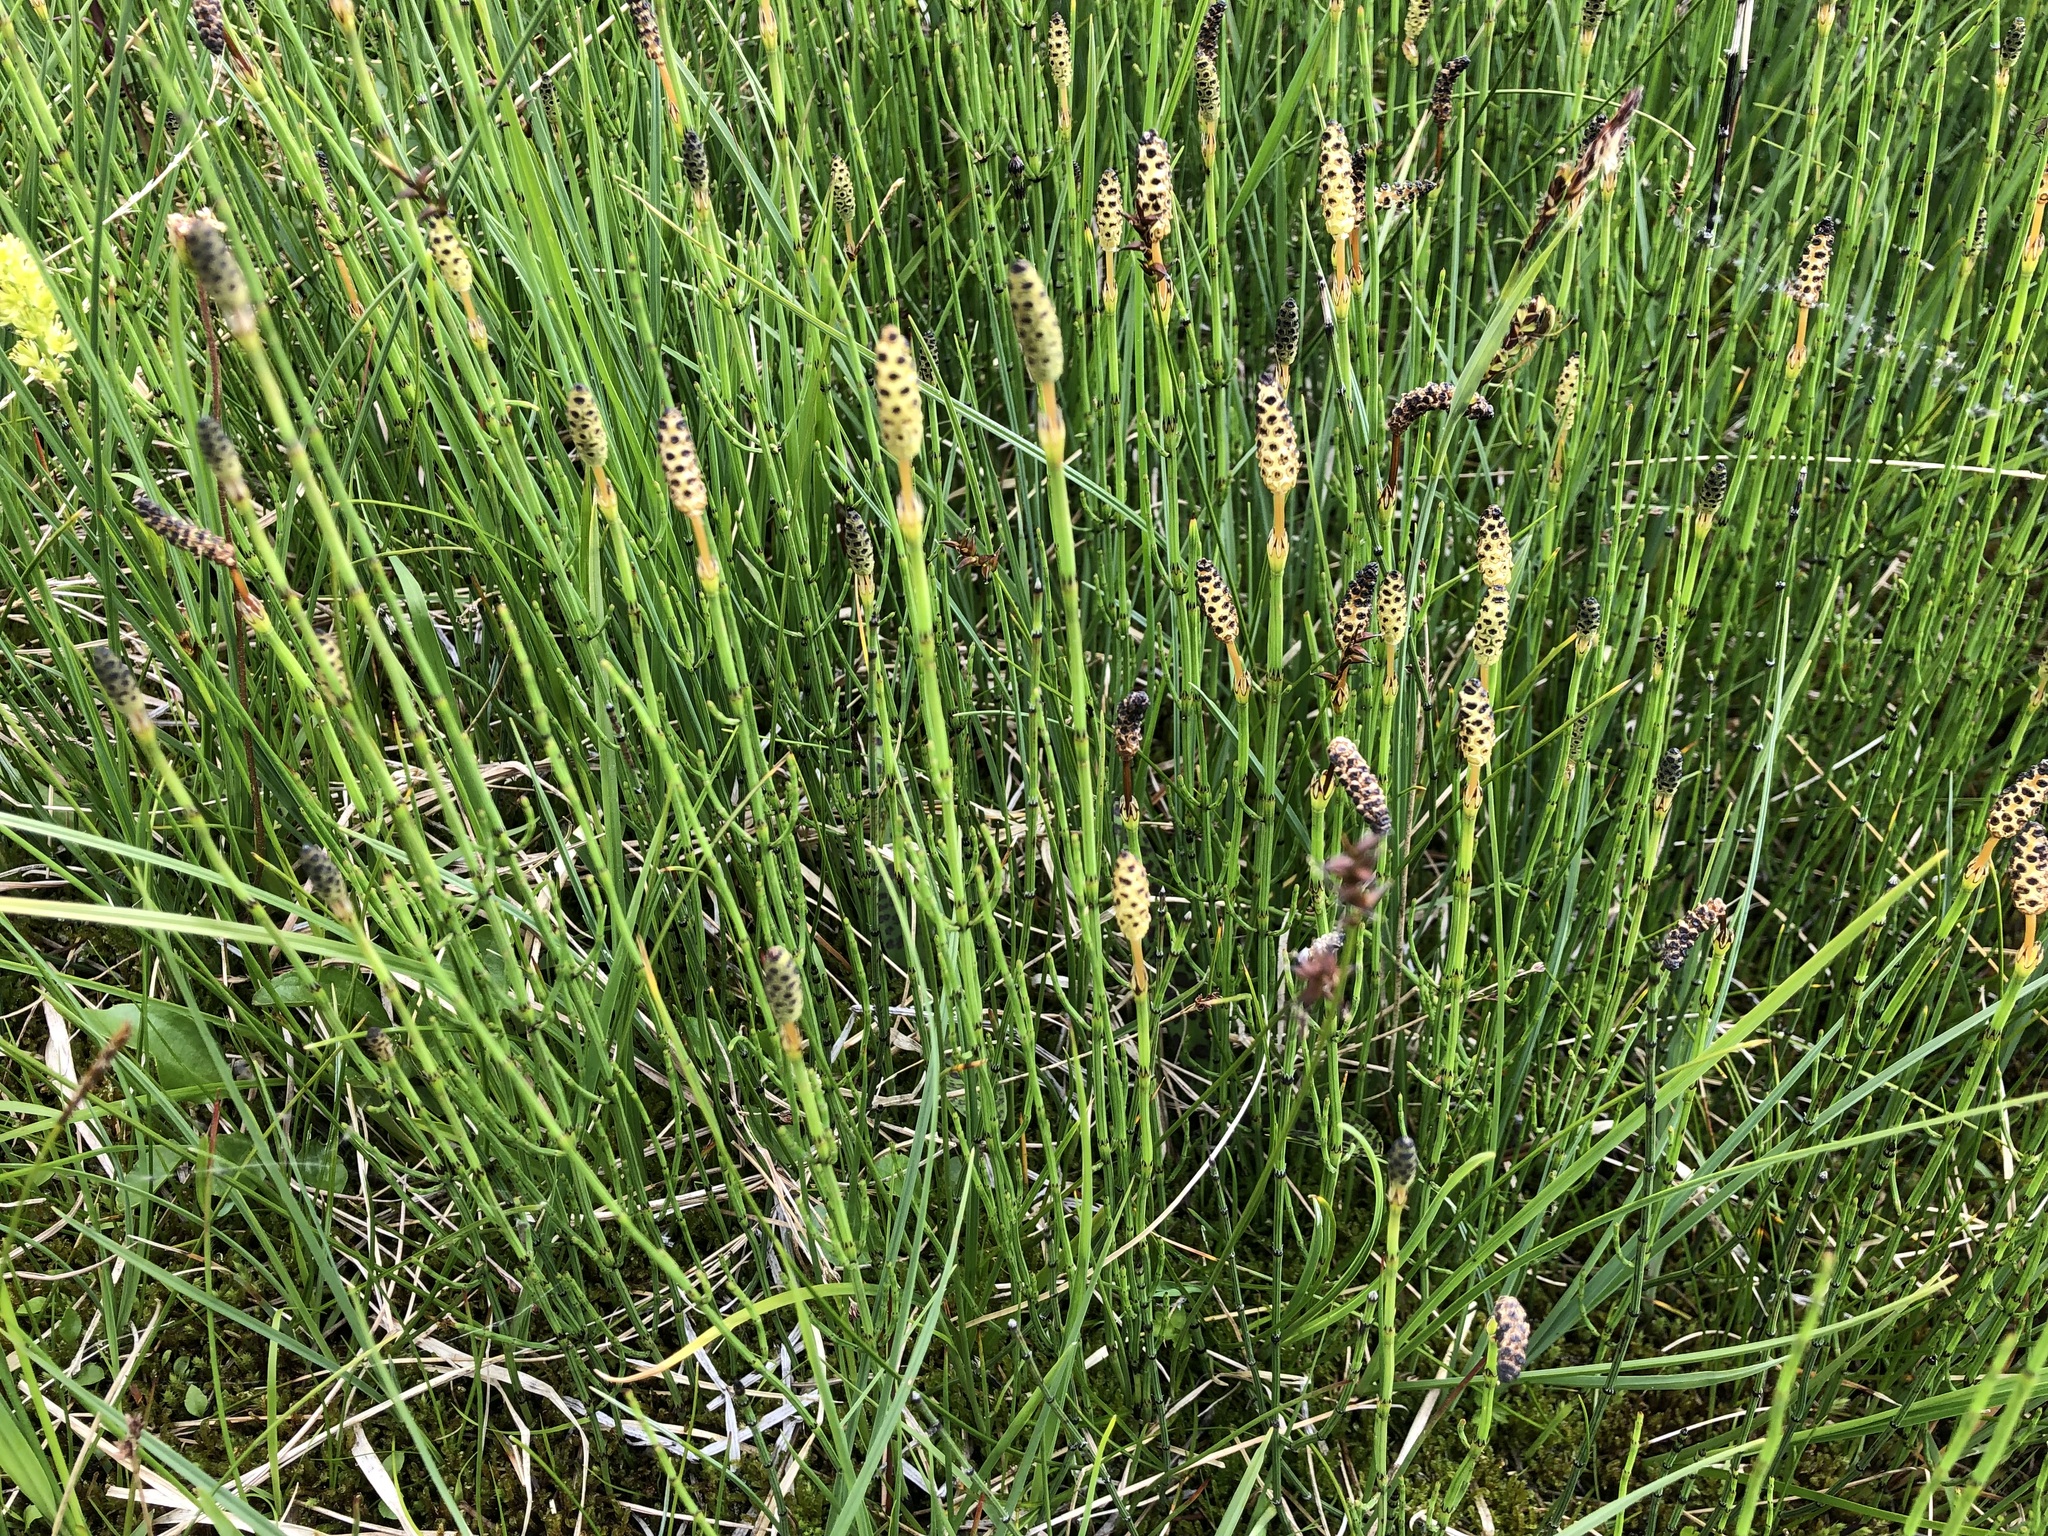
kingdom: Plantae
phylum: Tracheophyta
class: Polypodiopsida
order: Equisetales
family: Equisetaceae
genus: Equisetum
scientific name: Equisetum palustre
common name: Marsh horsetail
